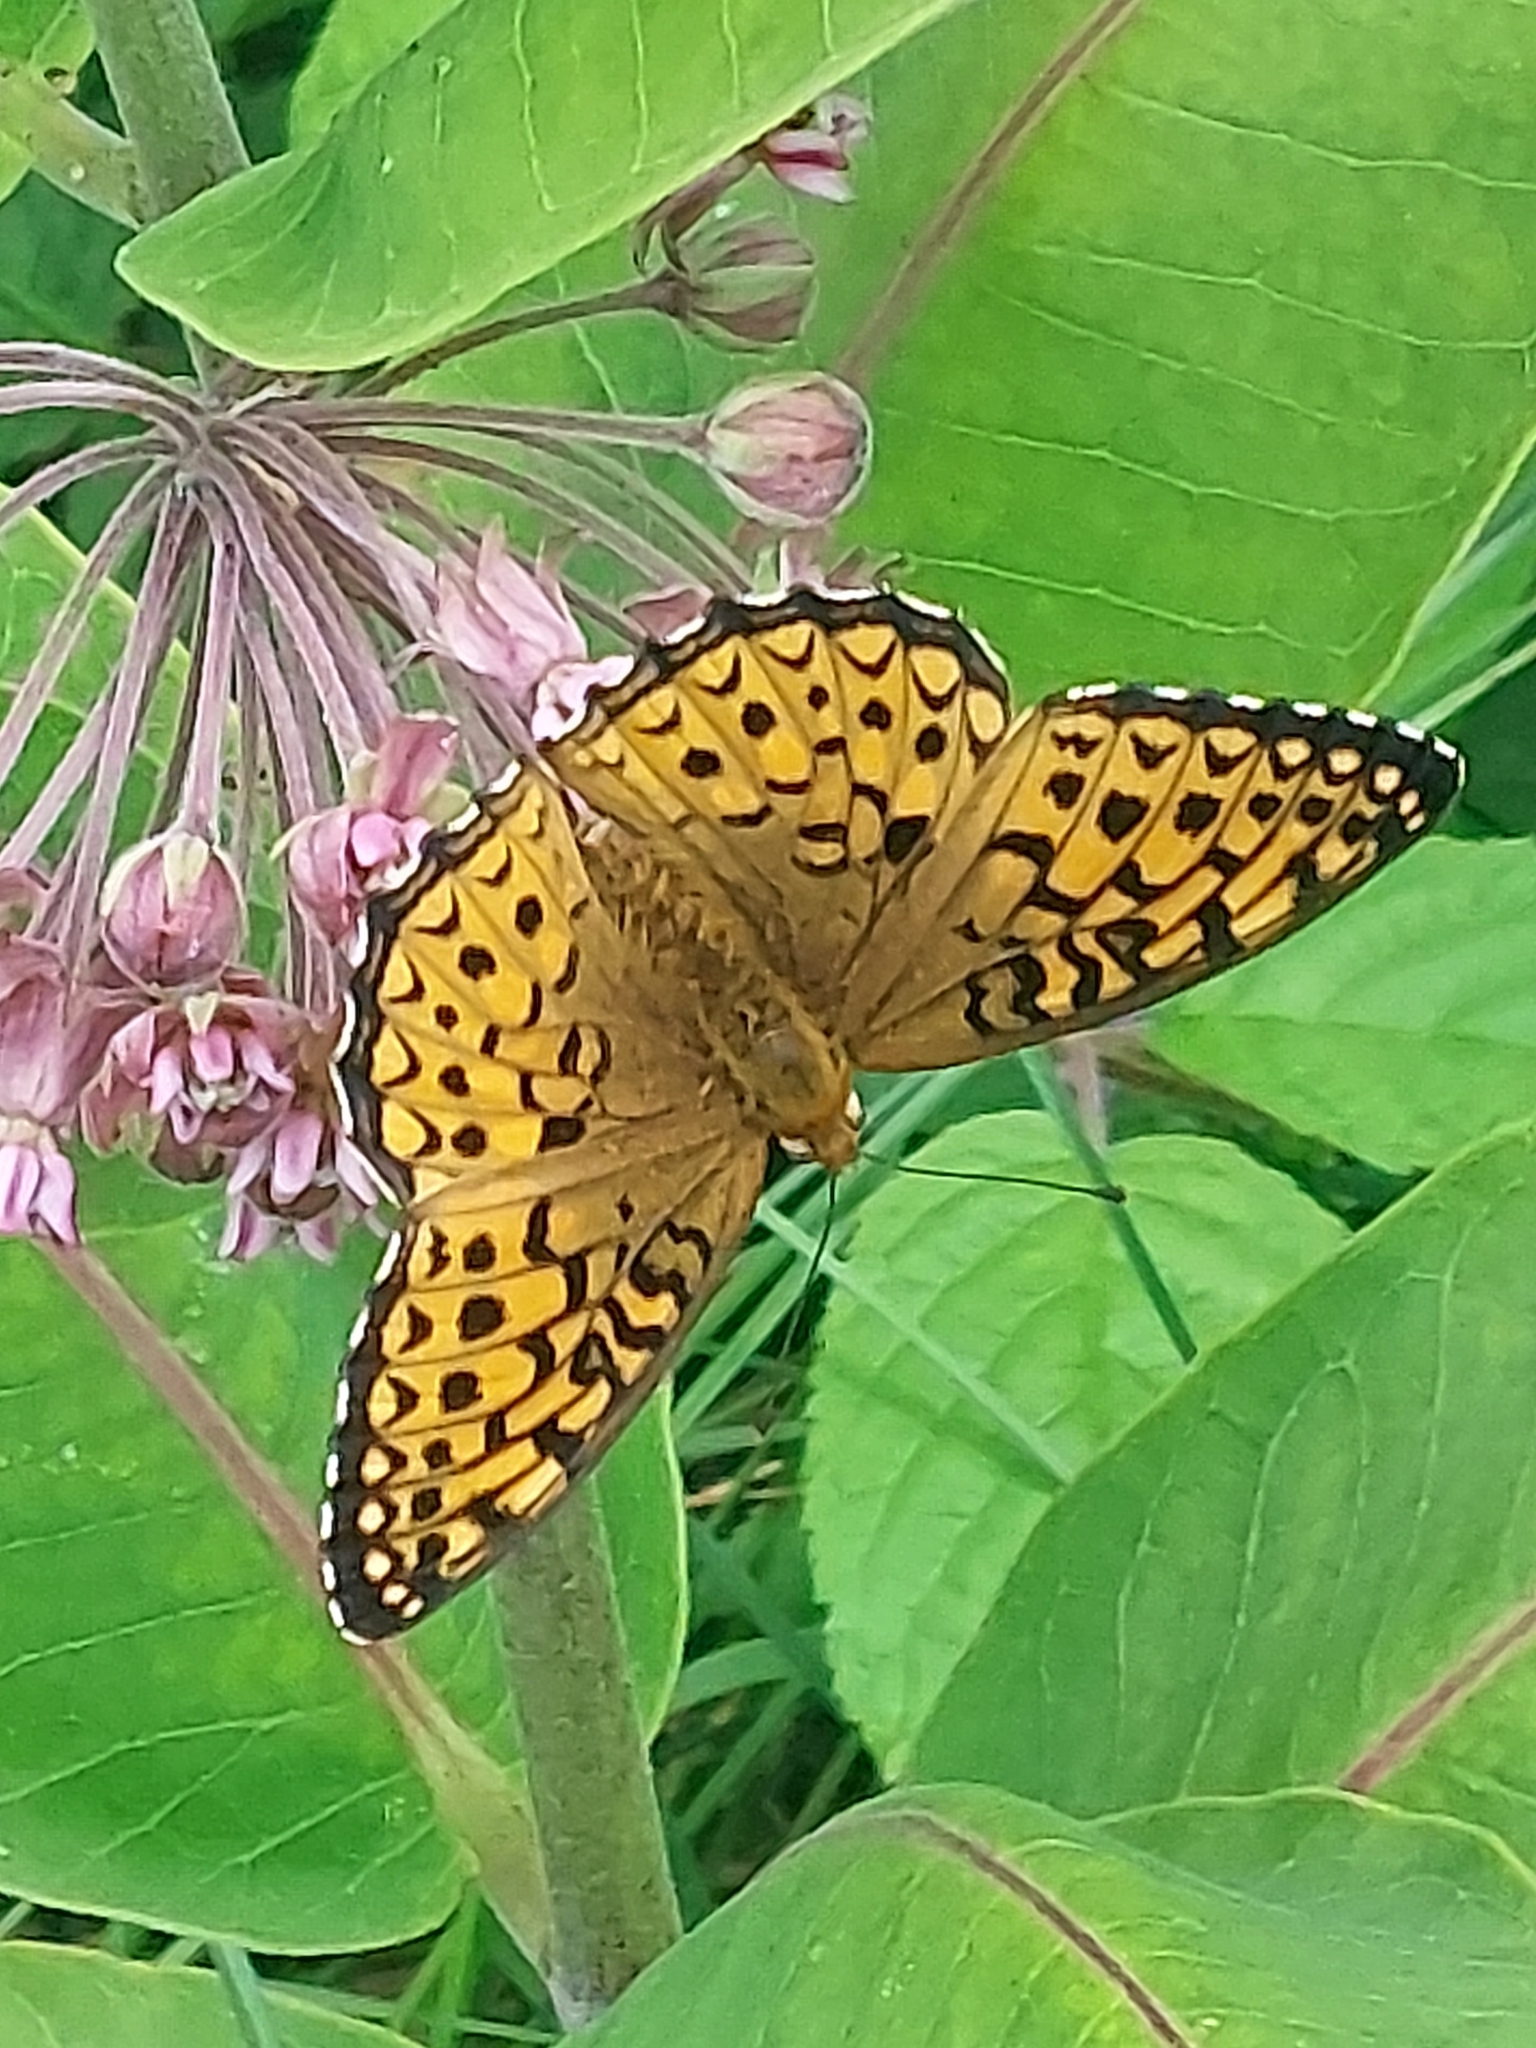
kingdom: Animalia
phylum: Arthropoda
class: Insecta
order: Lepidoptera
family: Nymphalidae
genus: Speyeria
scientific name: Speyeria atlantis
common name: Atlantis fritillary
